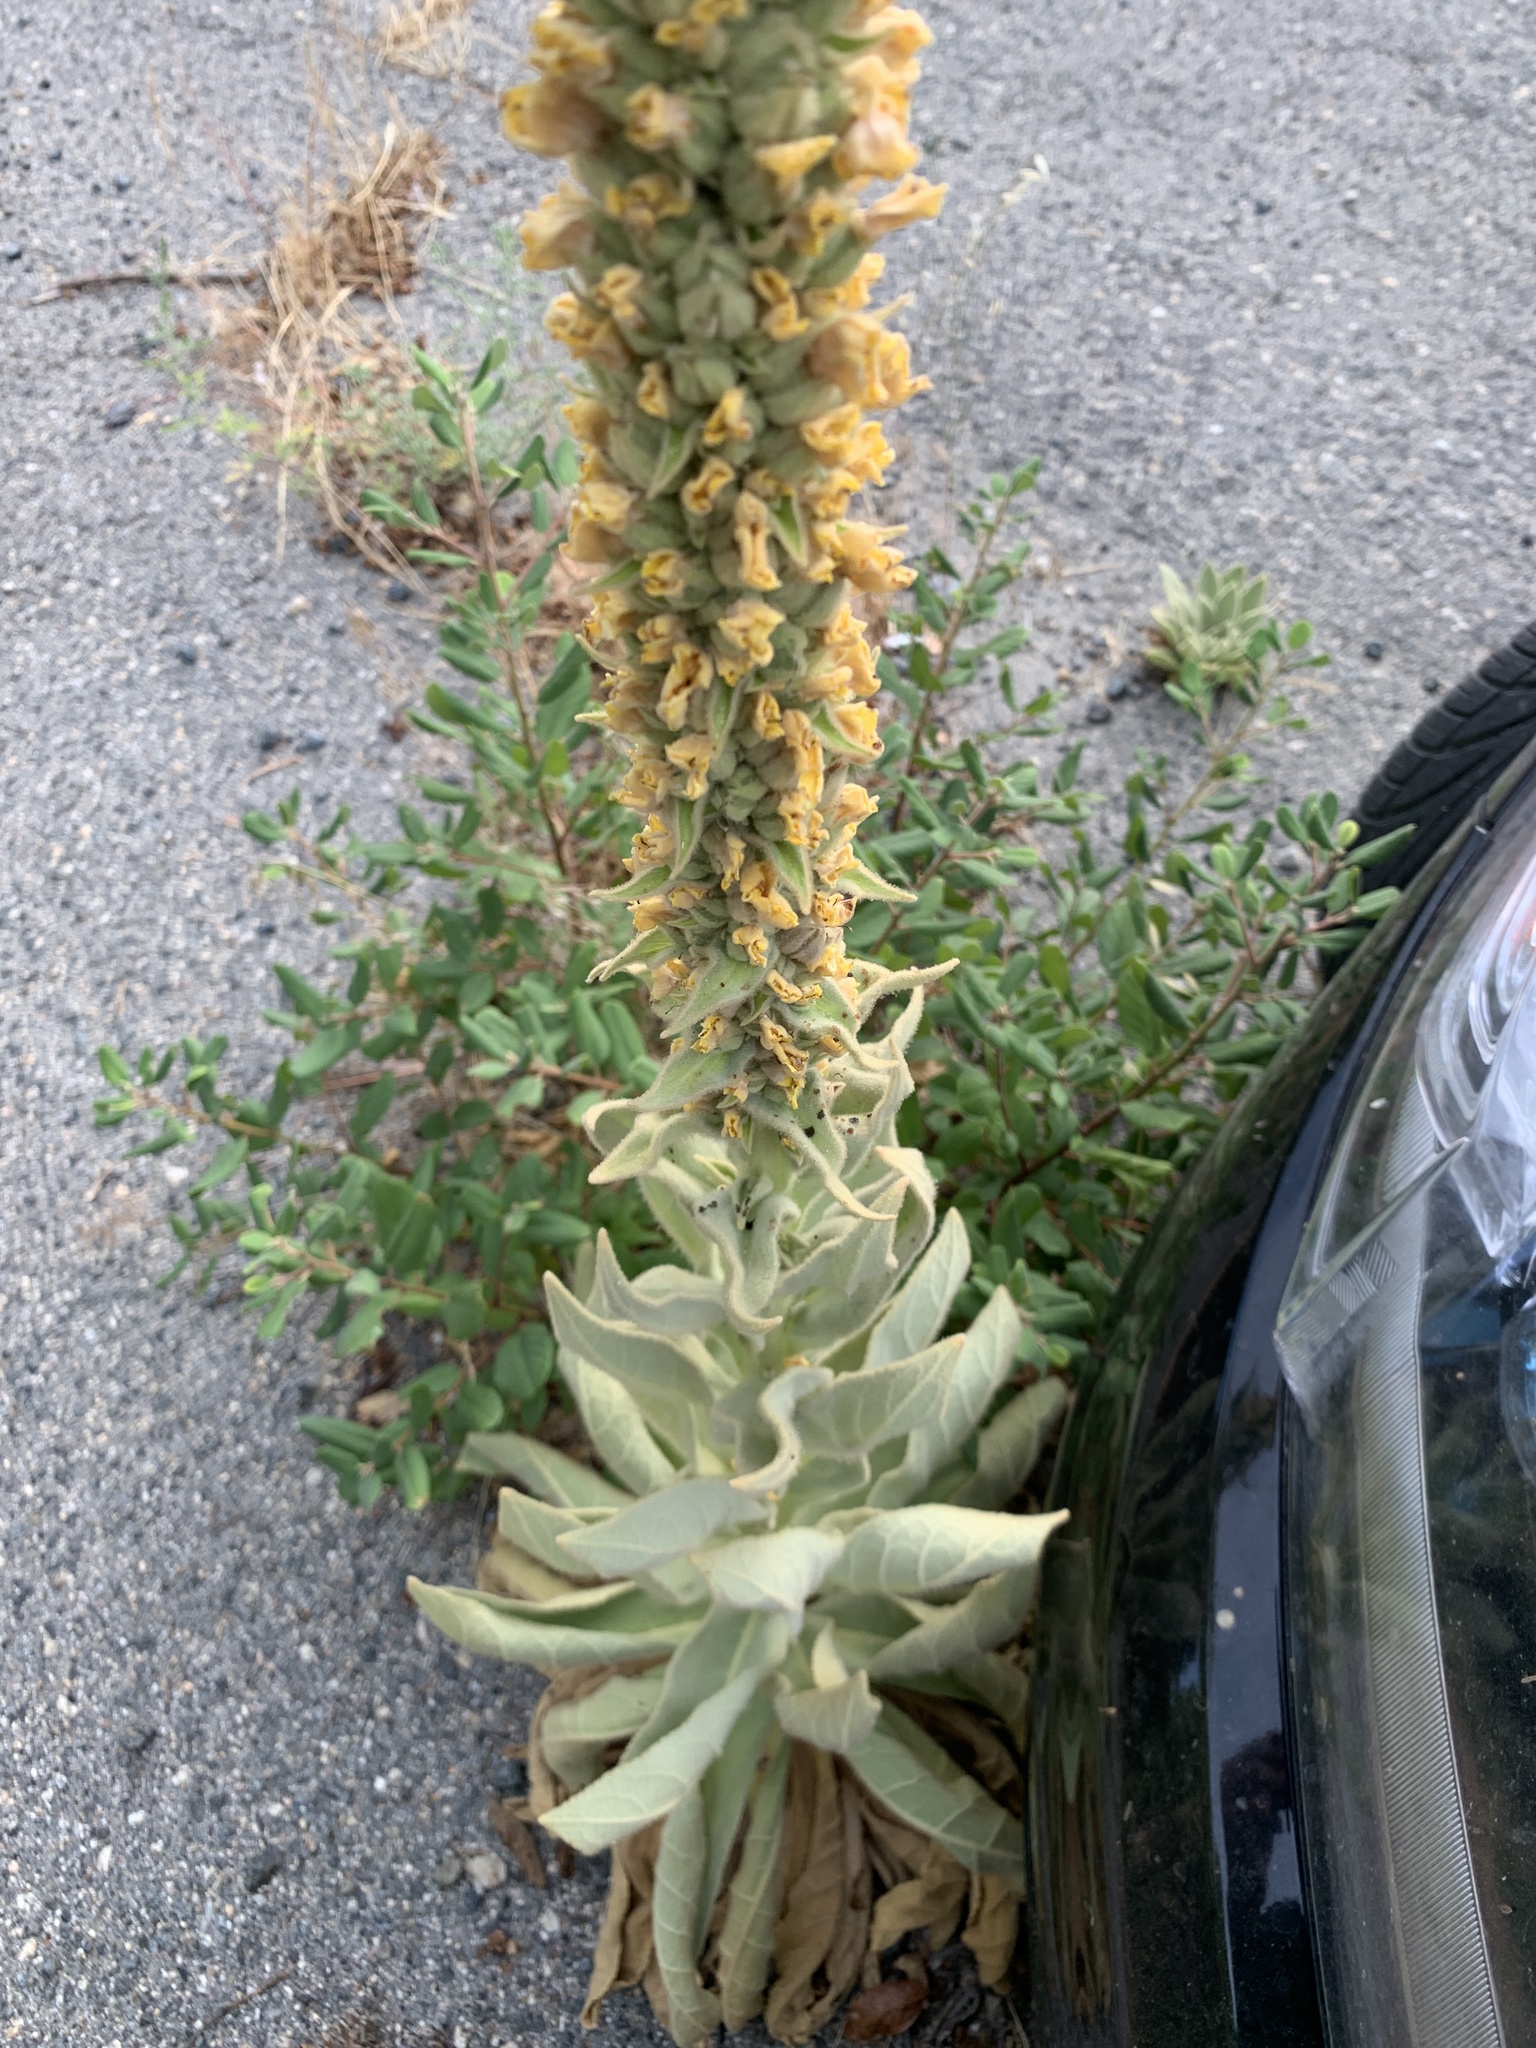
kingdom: Plantae
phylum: Tracheophyta
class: Magnoliopsida
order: Lamiales
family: Scrophulariaceae
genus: Verbascum
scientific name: Verbascum thapsus
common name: Common mullein
